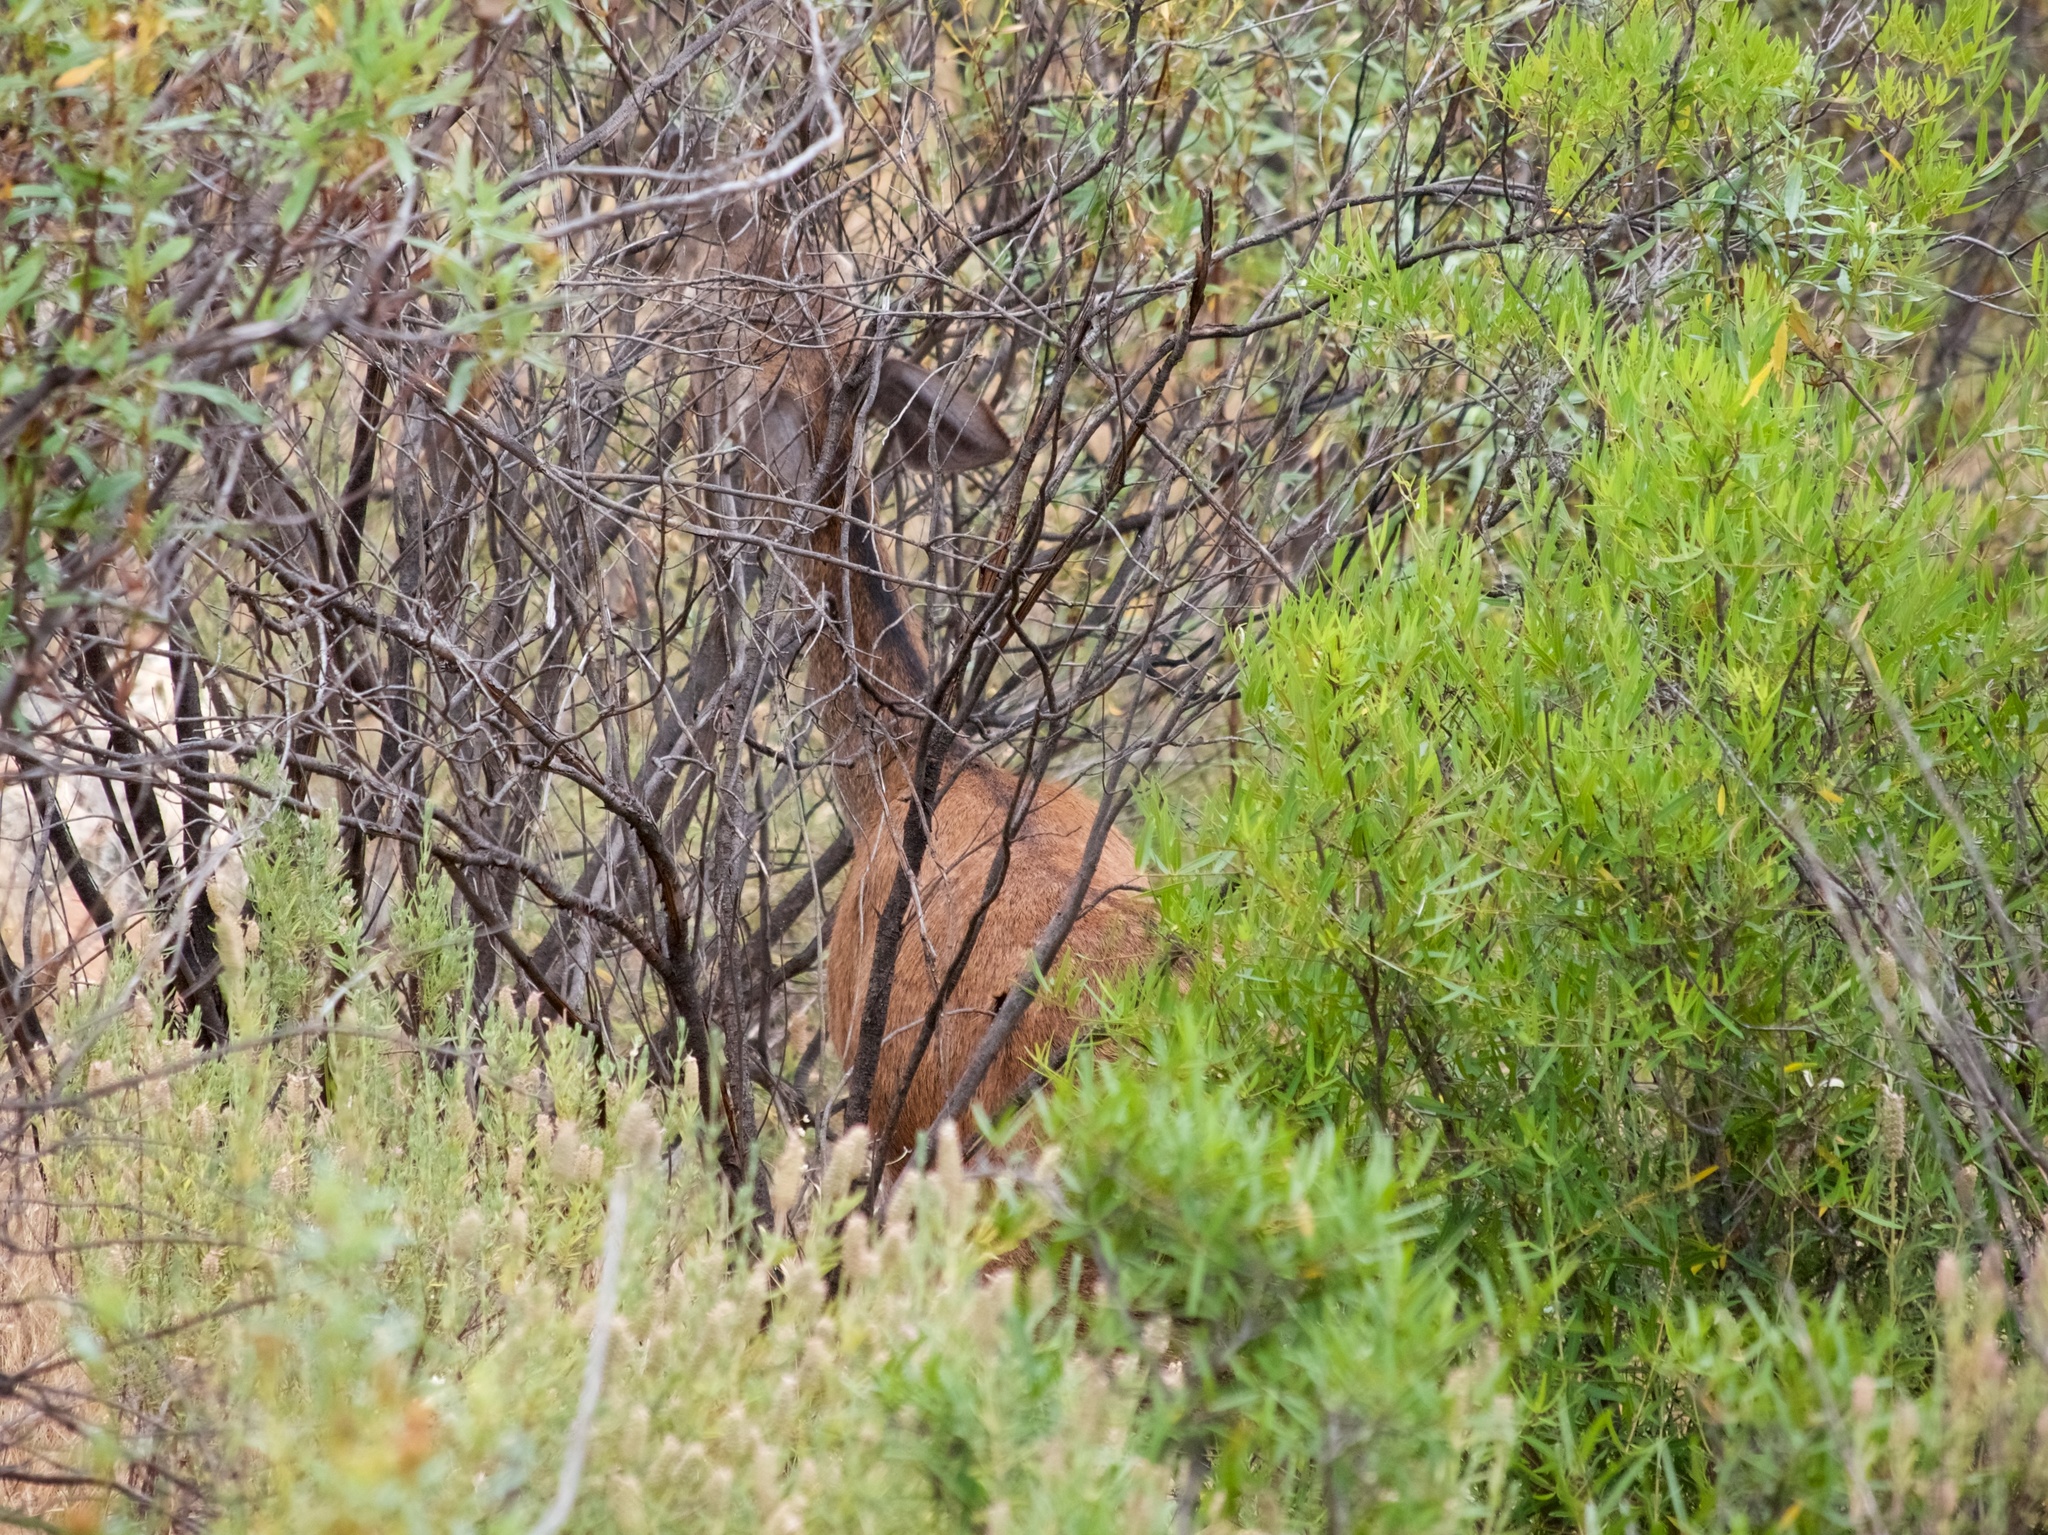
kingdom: Animalia
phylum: Chordata
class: Mammalia
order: Artiodactyla
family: Cervidae
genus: Cervus
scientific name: Cervus elaphus
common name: Red deer
